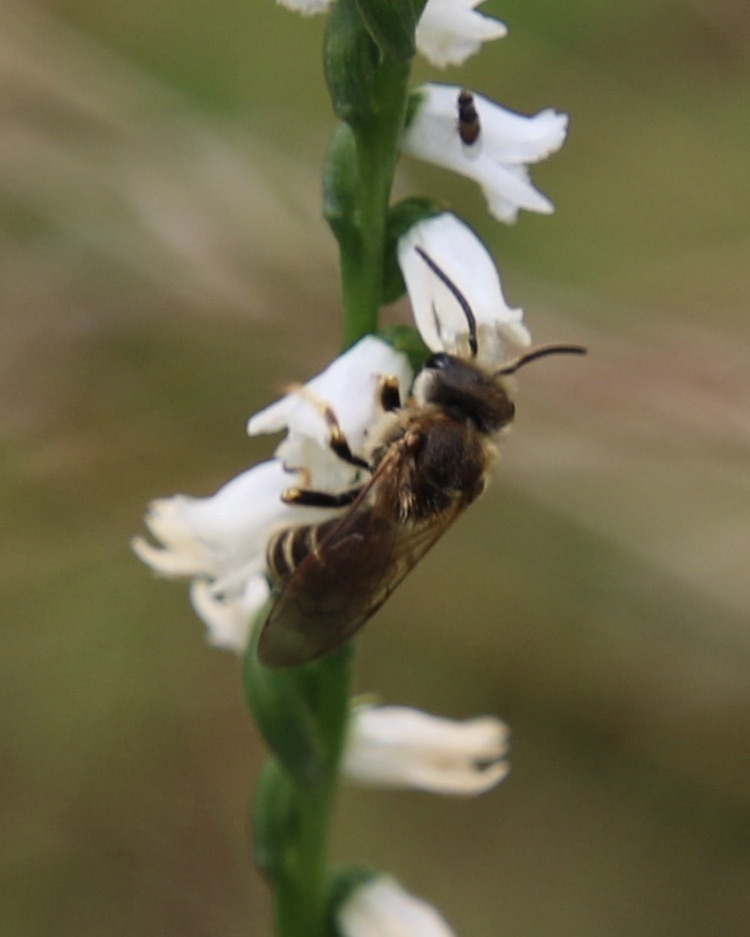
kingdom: Animalia
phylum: Arthropoda
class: Insecta
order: Hymenoptera
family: Halictidae
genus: Halictus
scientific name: Halictus ligatus
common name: Ligated furrow bee
